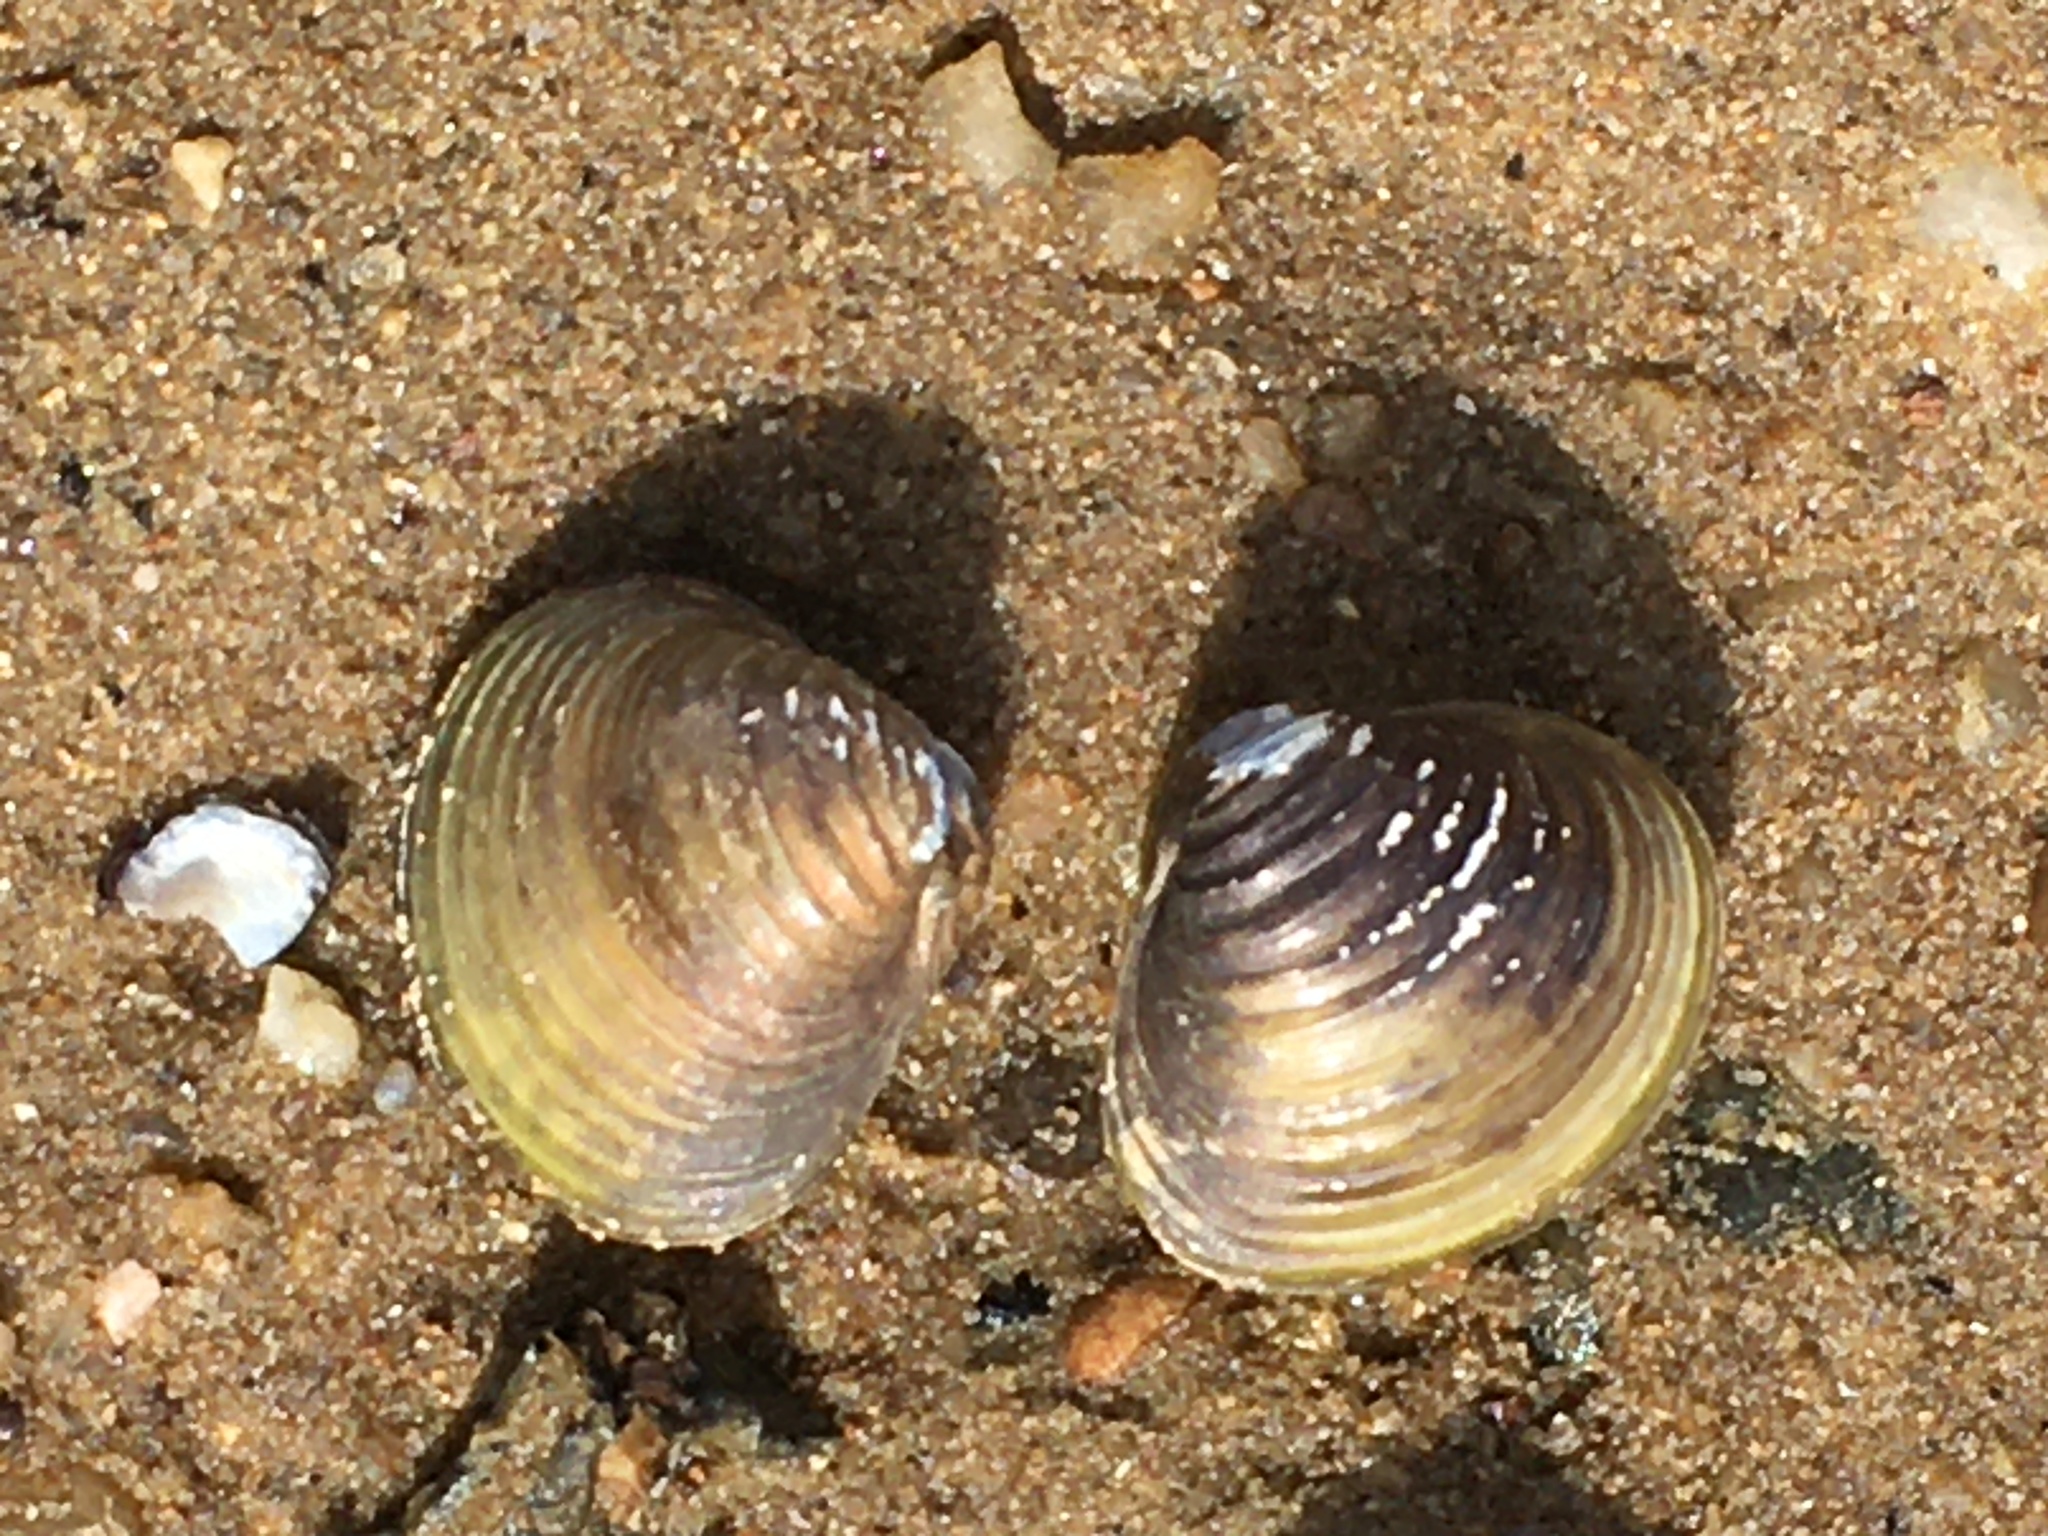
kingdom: Animalia
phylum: Mollusca
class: Bivalvia
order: Venerida
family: Cyrenidae
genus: Corbicula
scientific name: Corbicula fluminea
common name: Asian clam
